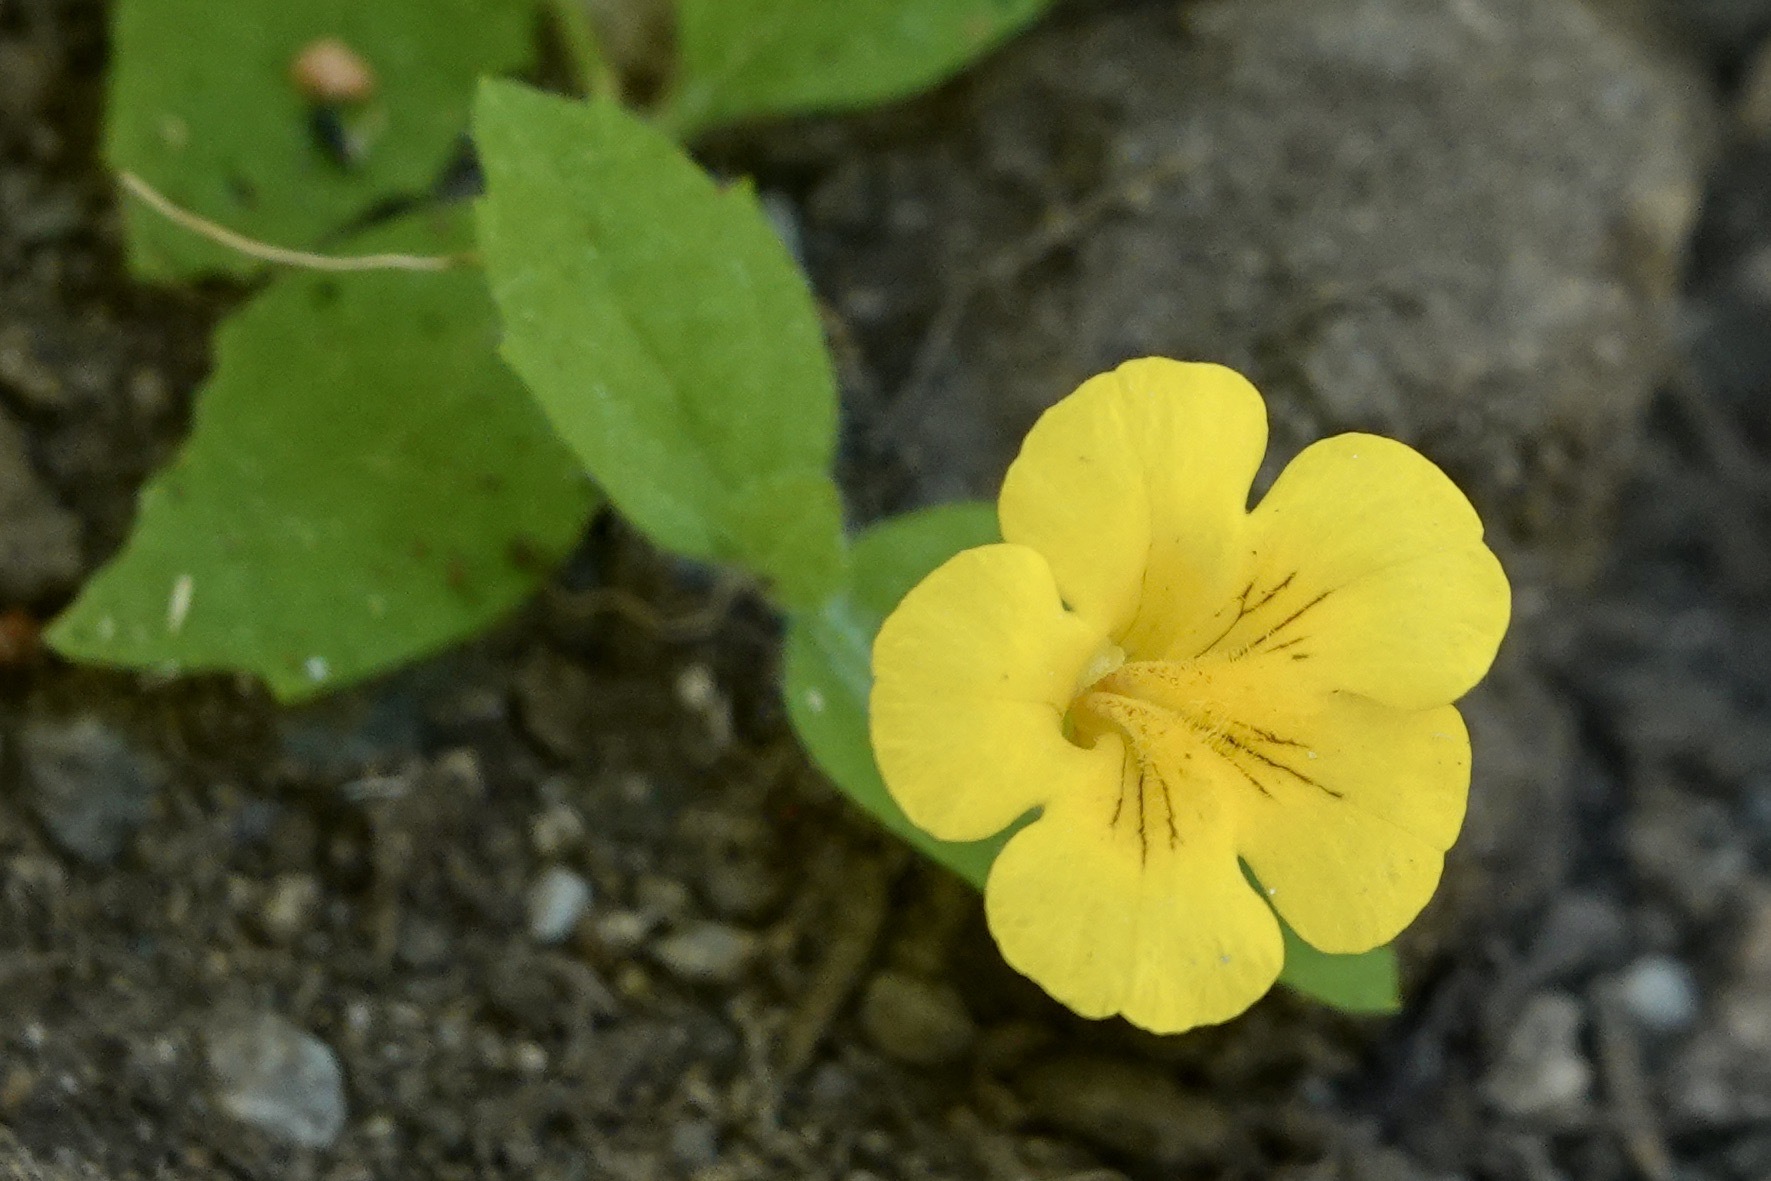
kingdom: Plantae
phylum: Tracheophyta
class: Magnoliopsida
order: Lamiales
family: Phrymaceae
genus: Erythranthe
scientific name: Erythranthe moschata
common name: Muskflower
